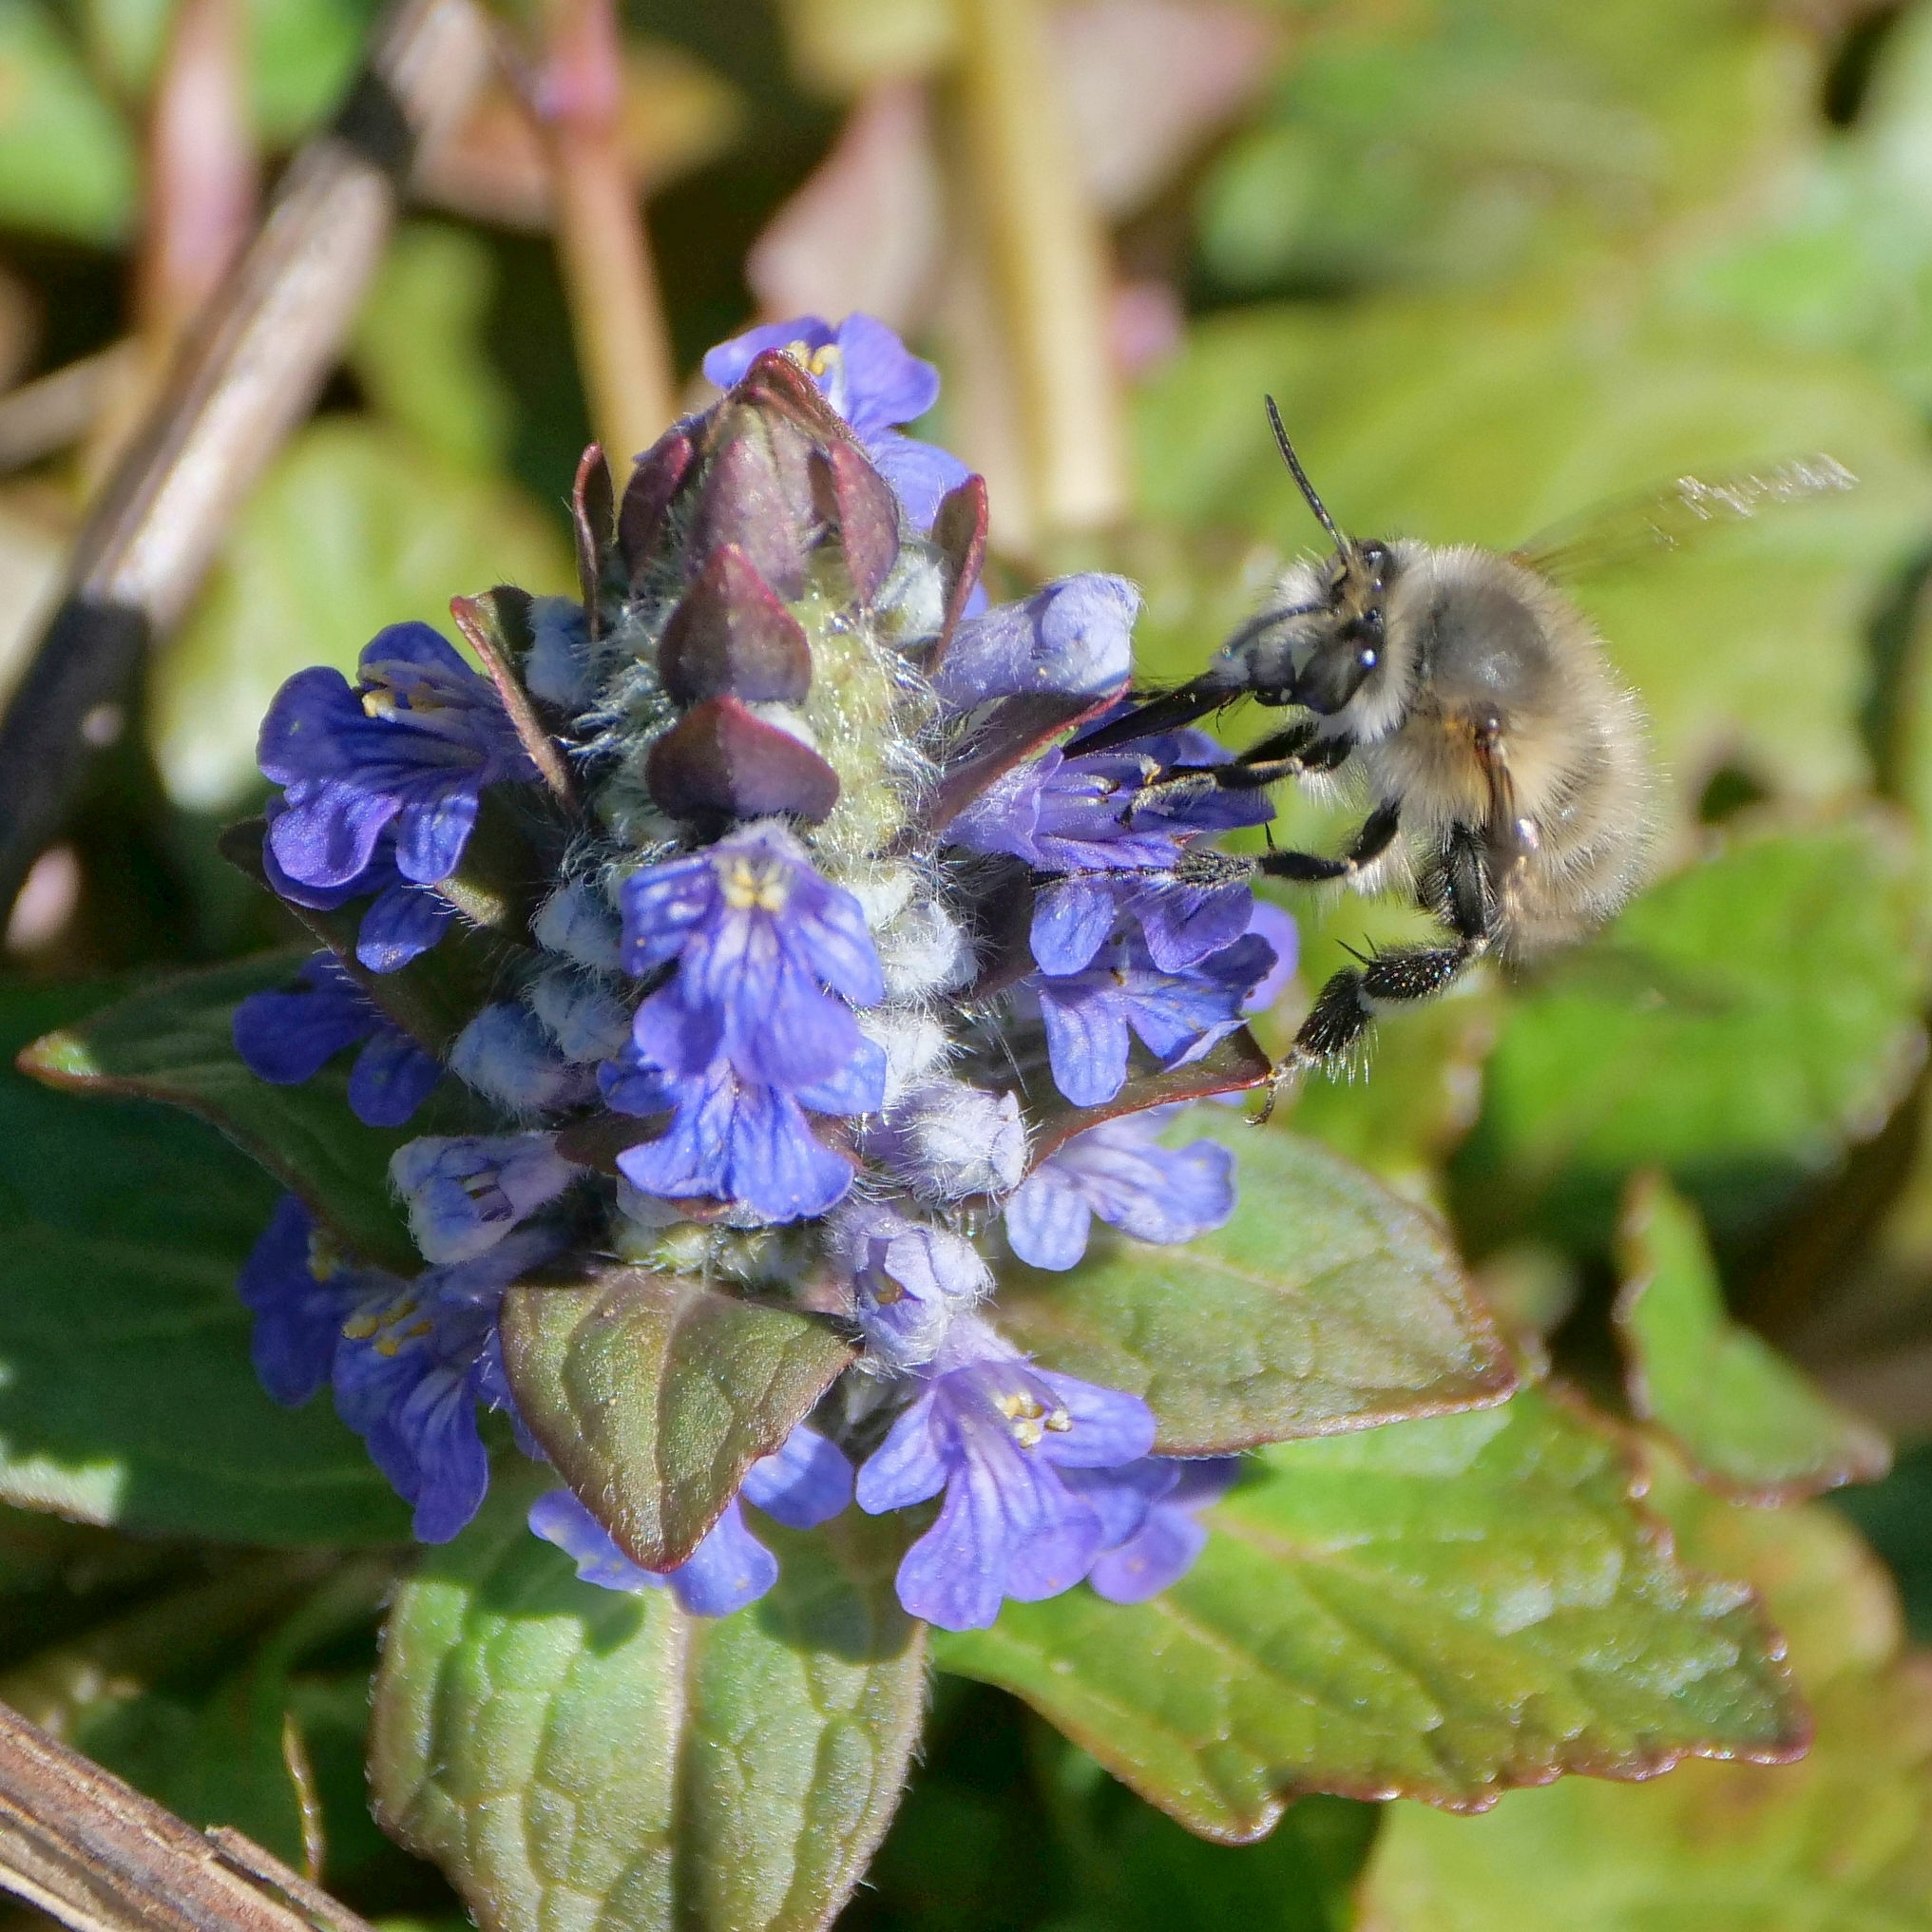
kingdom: Animalia
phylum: Arthropoda
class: Insecta
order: Hymenoptera
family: Apidae
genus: Anthophora
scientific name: Anthophora plumipes
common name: Hairy-footed flower bee
